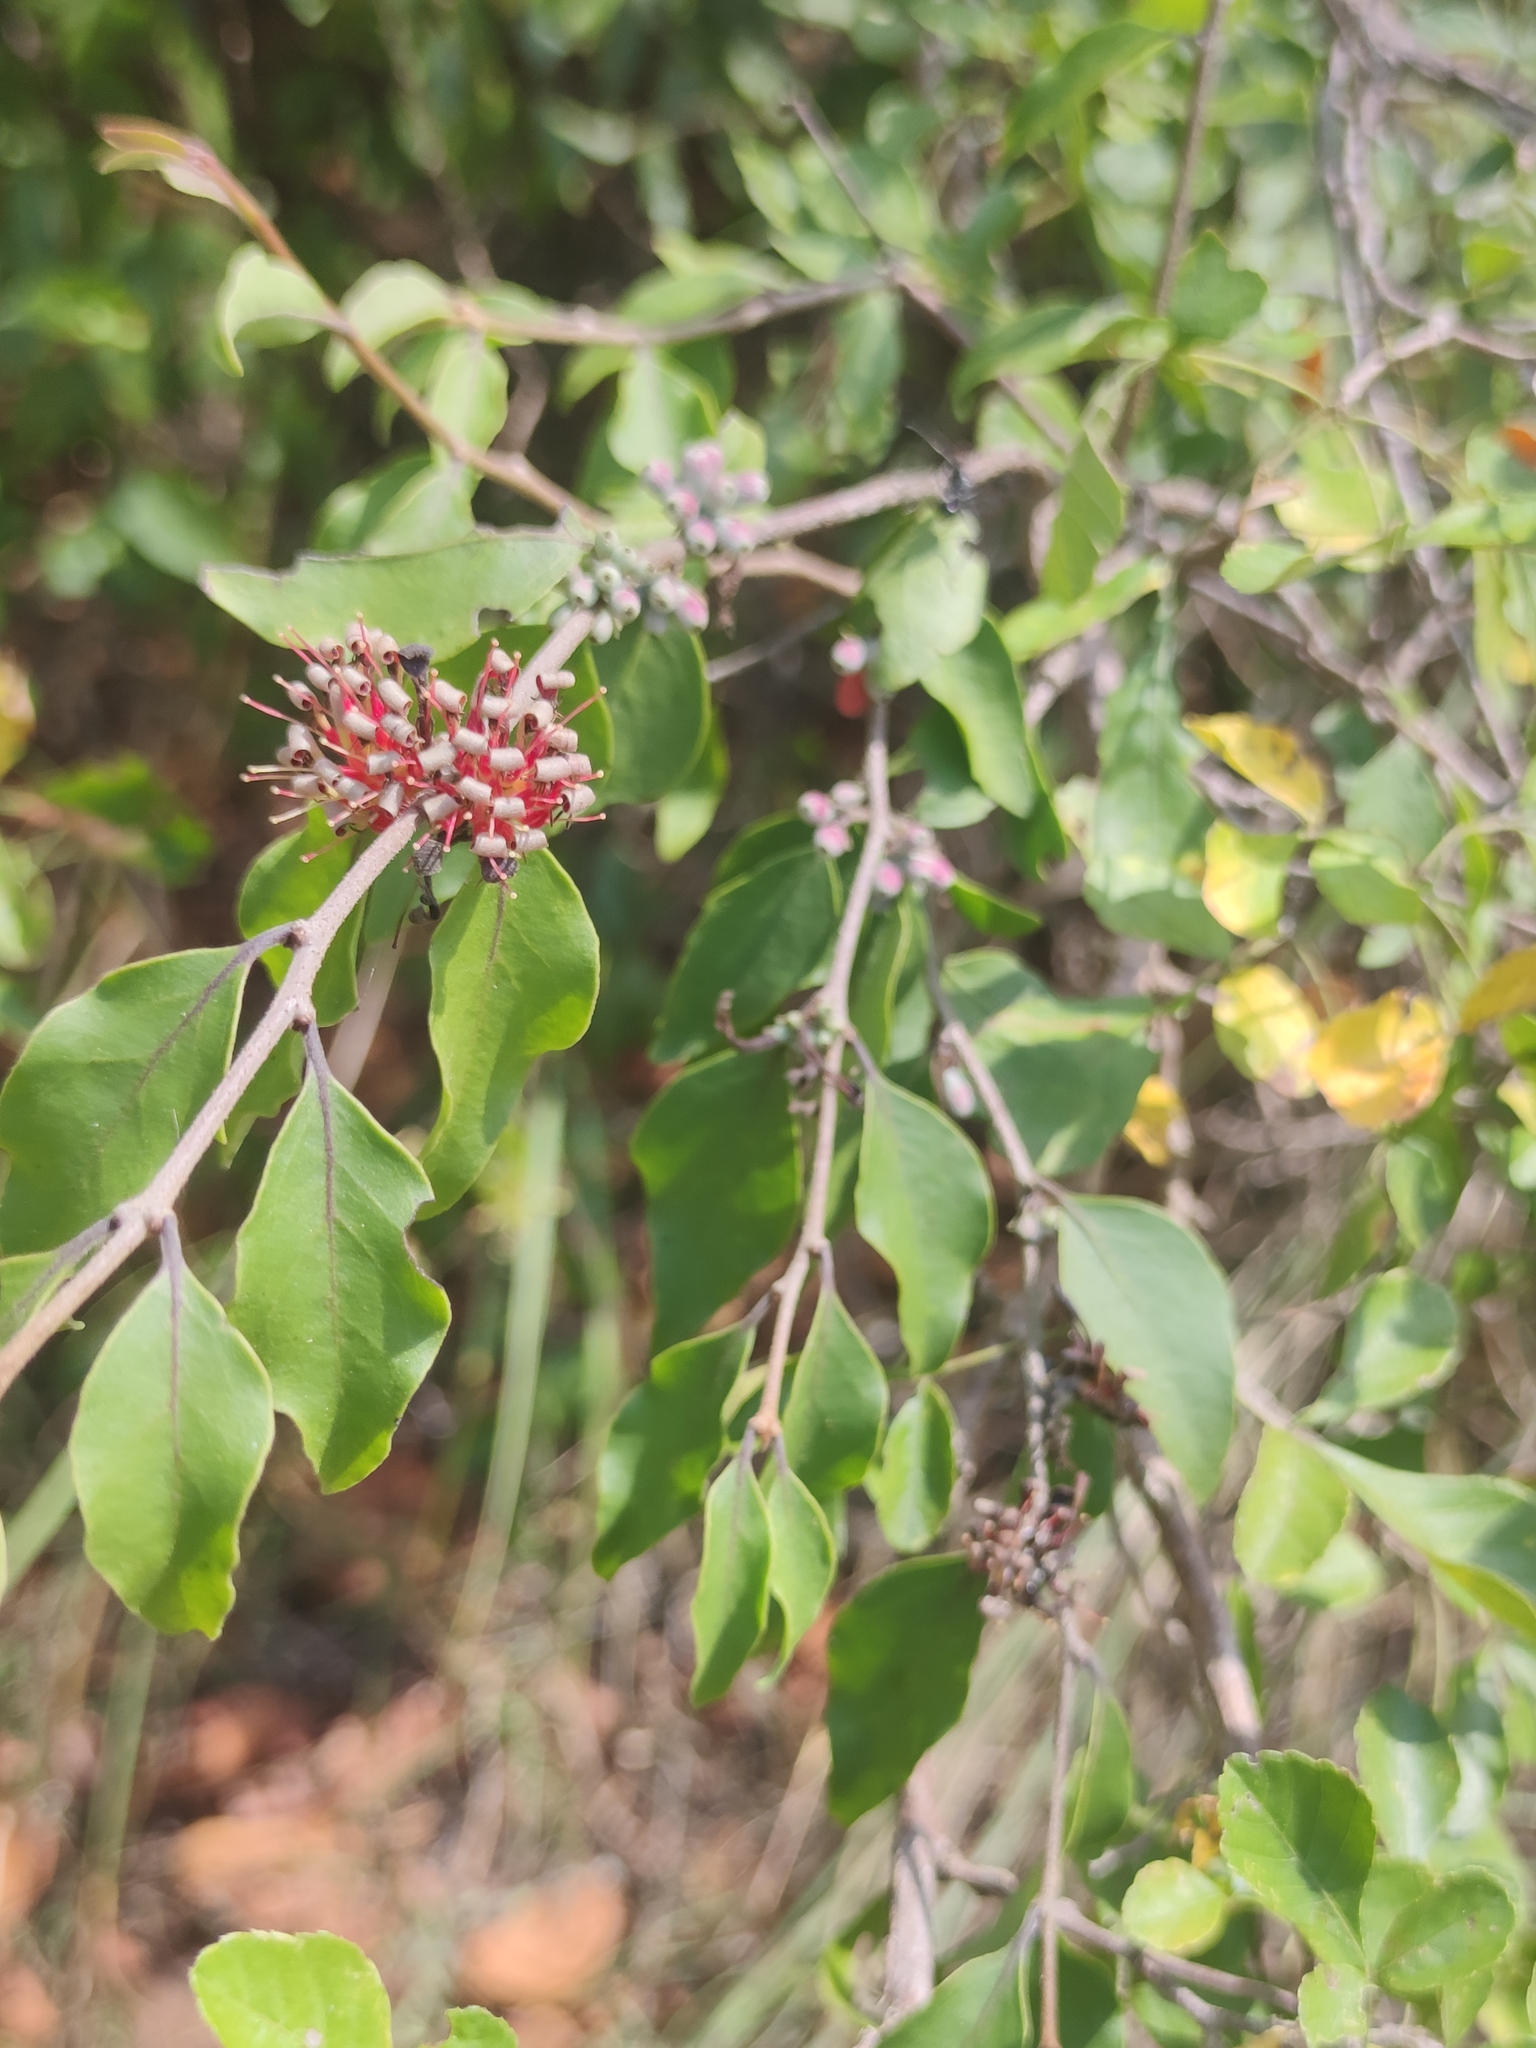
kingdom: Plantae
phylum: Tracheophyta
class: Magnoliopsida
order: Santalales
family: Loranthaceae
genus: Oliverella
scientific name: Oliverella hildebrandtii
